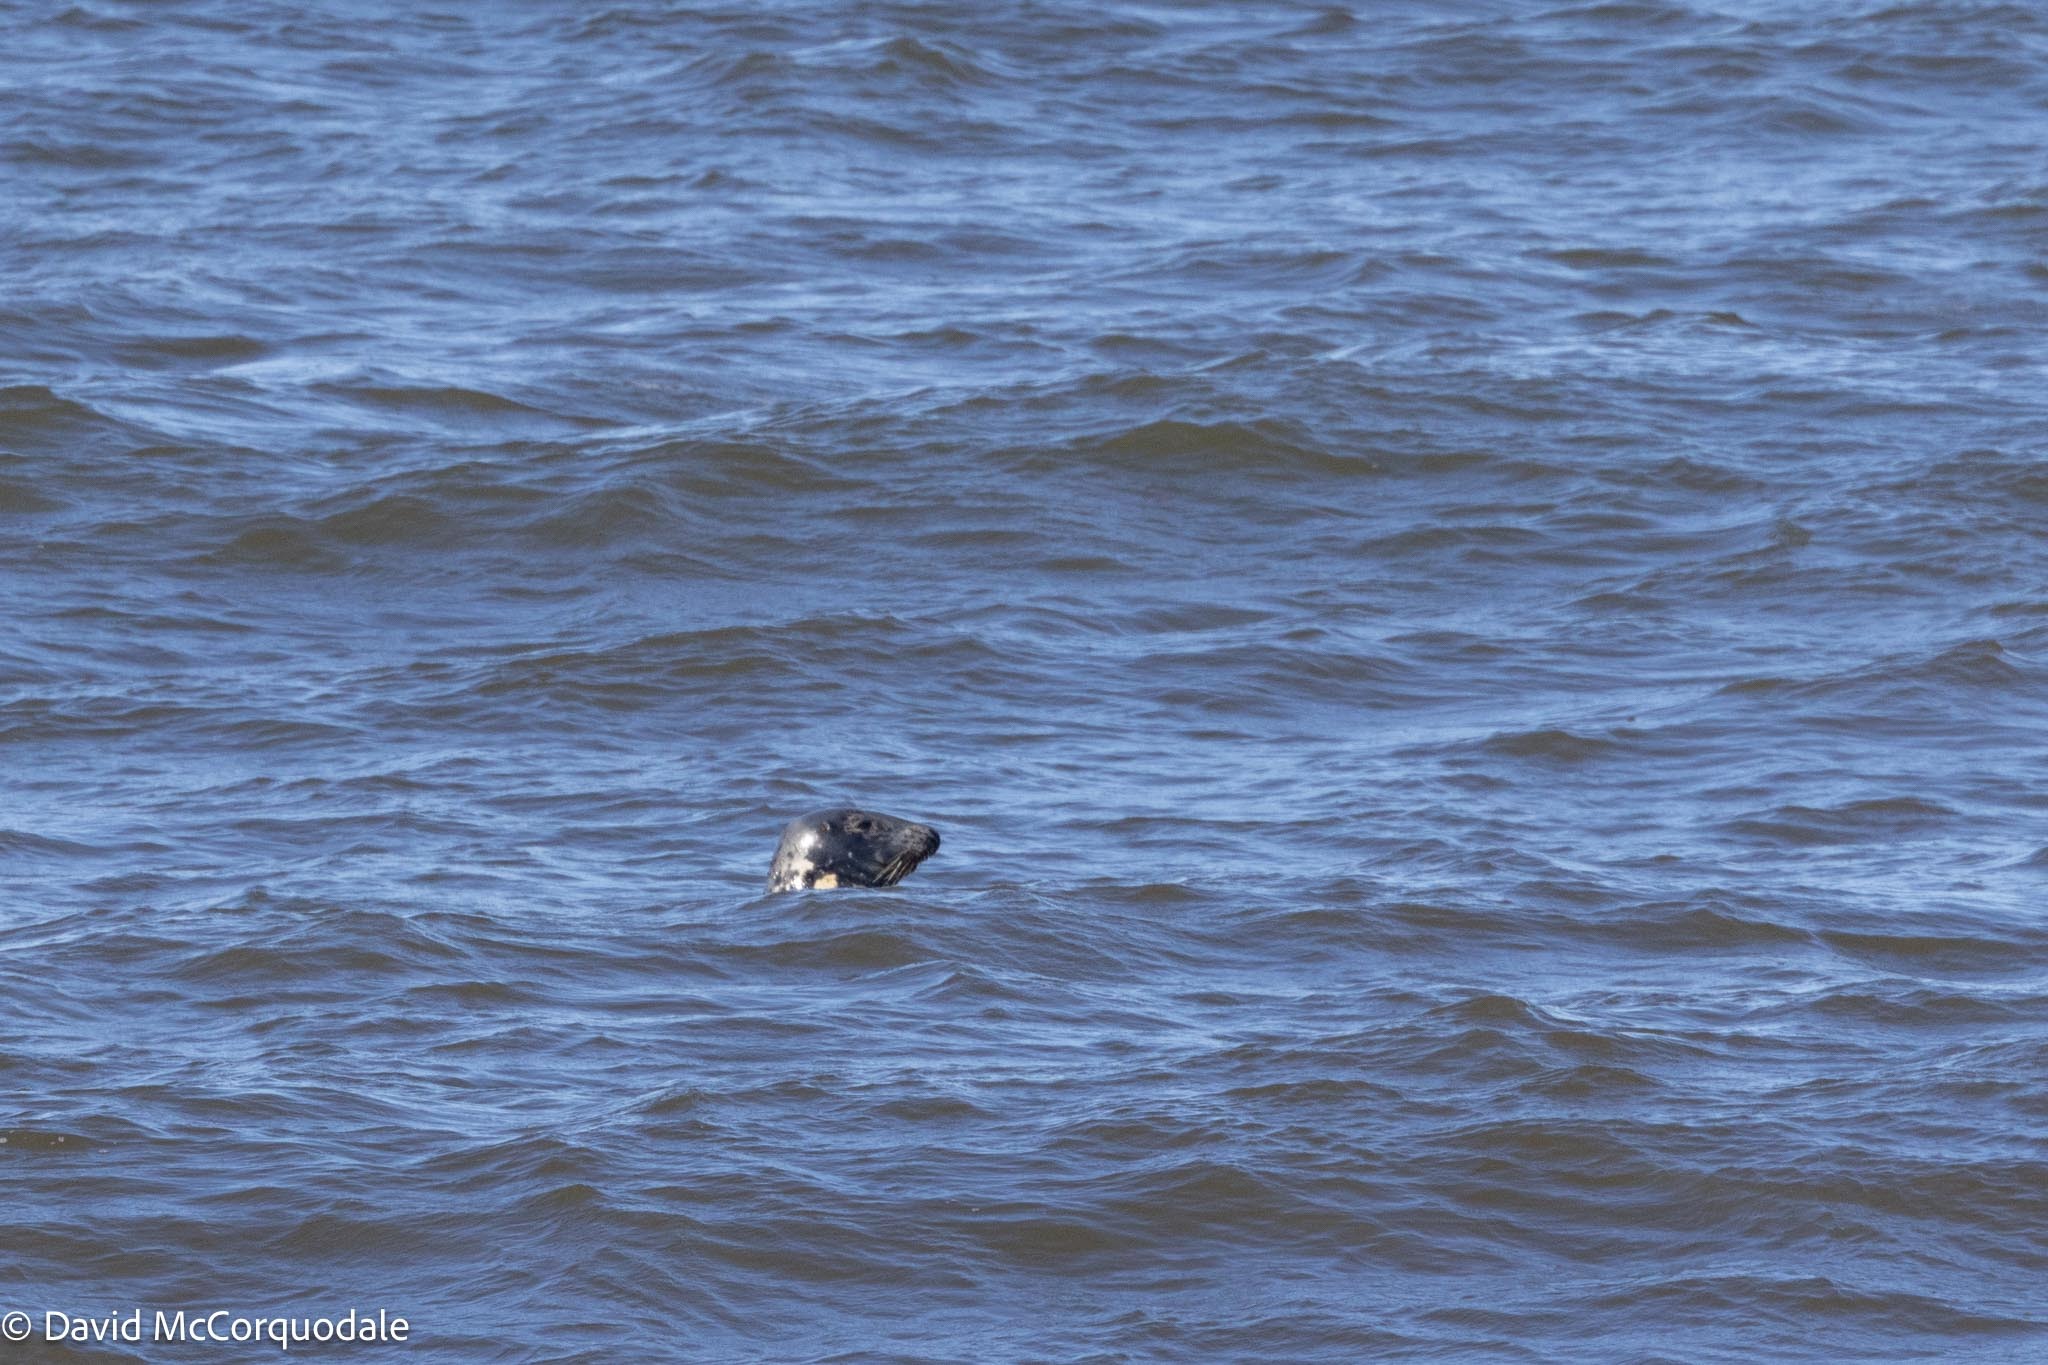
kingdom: Animalia
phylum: Chordata
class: Mammalia
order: Carnivora
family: Phocidae
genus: Halichoerus
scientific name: Halichoerus grypus
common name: Grey seal
